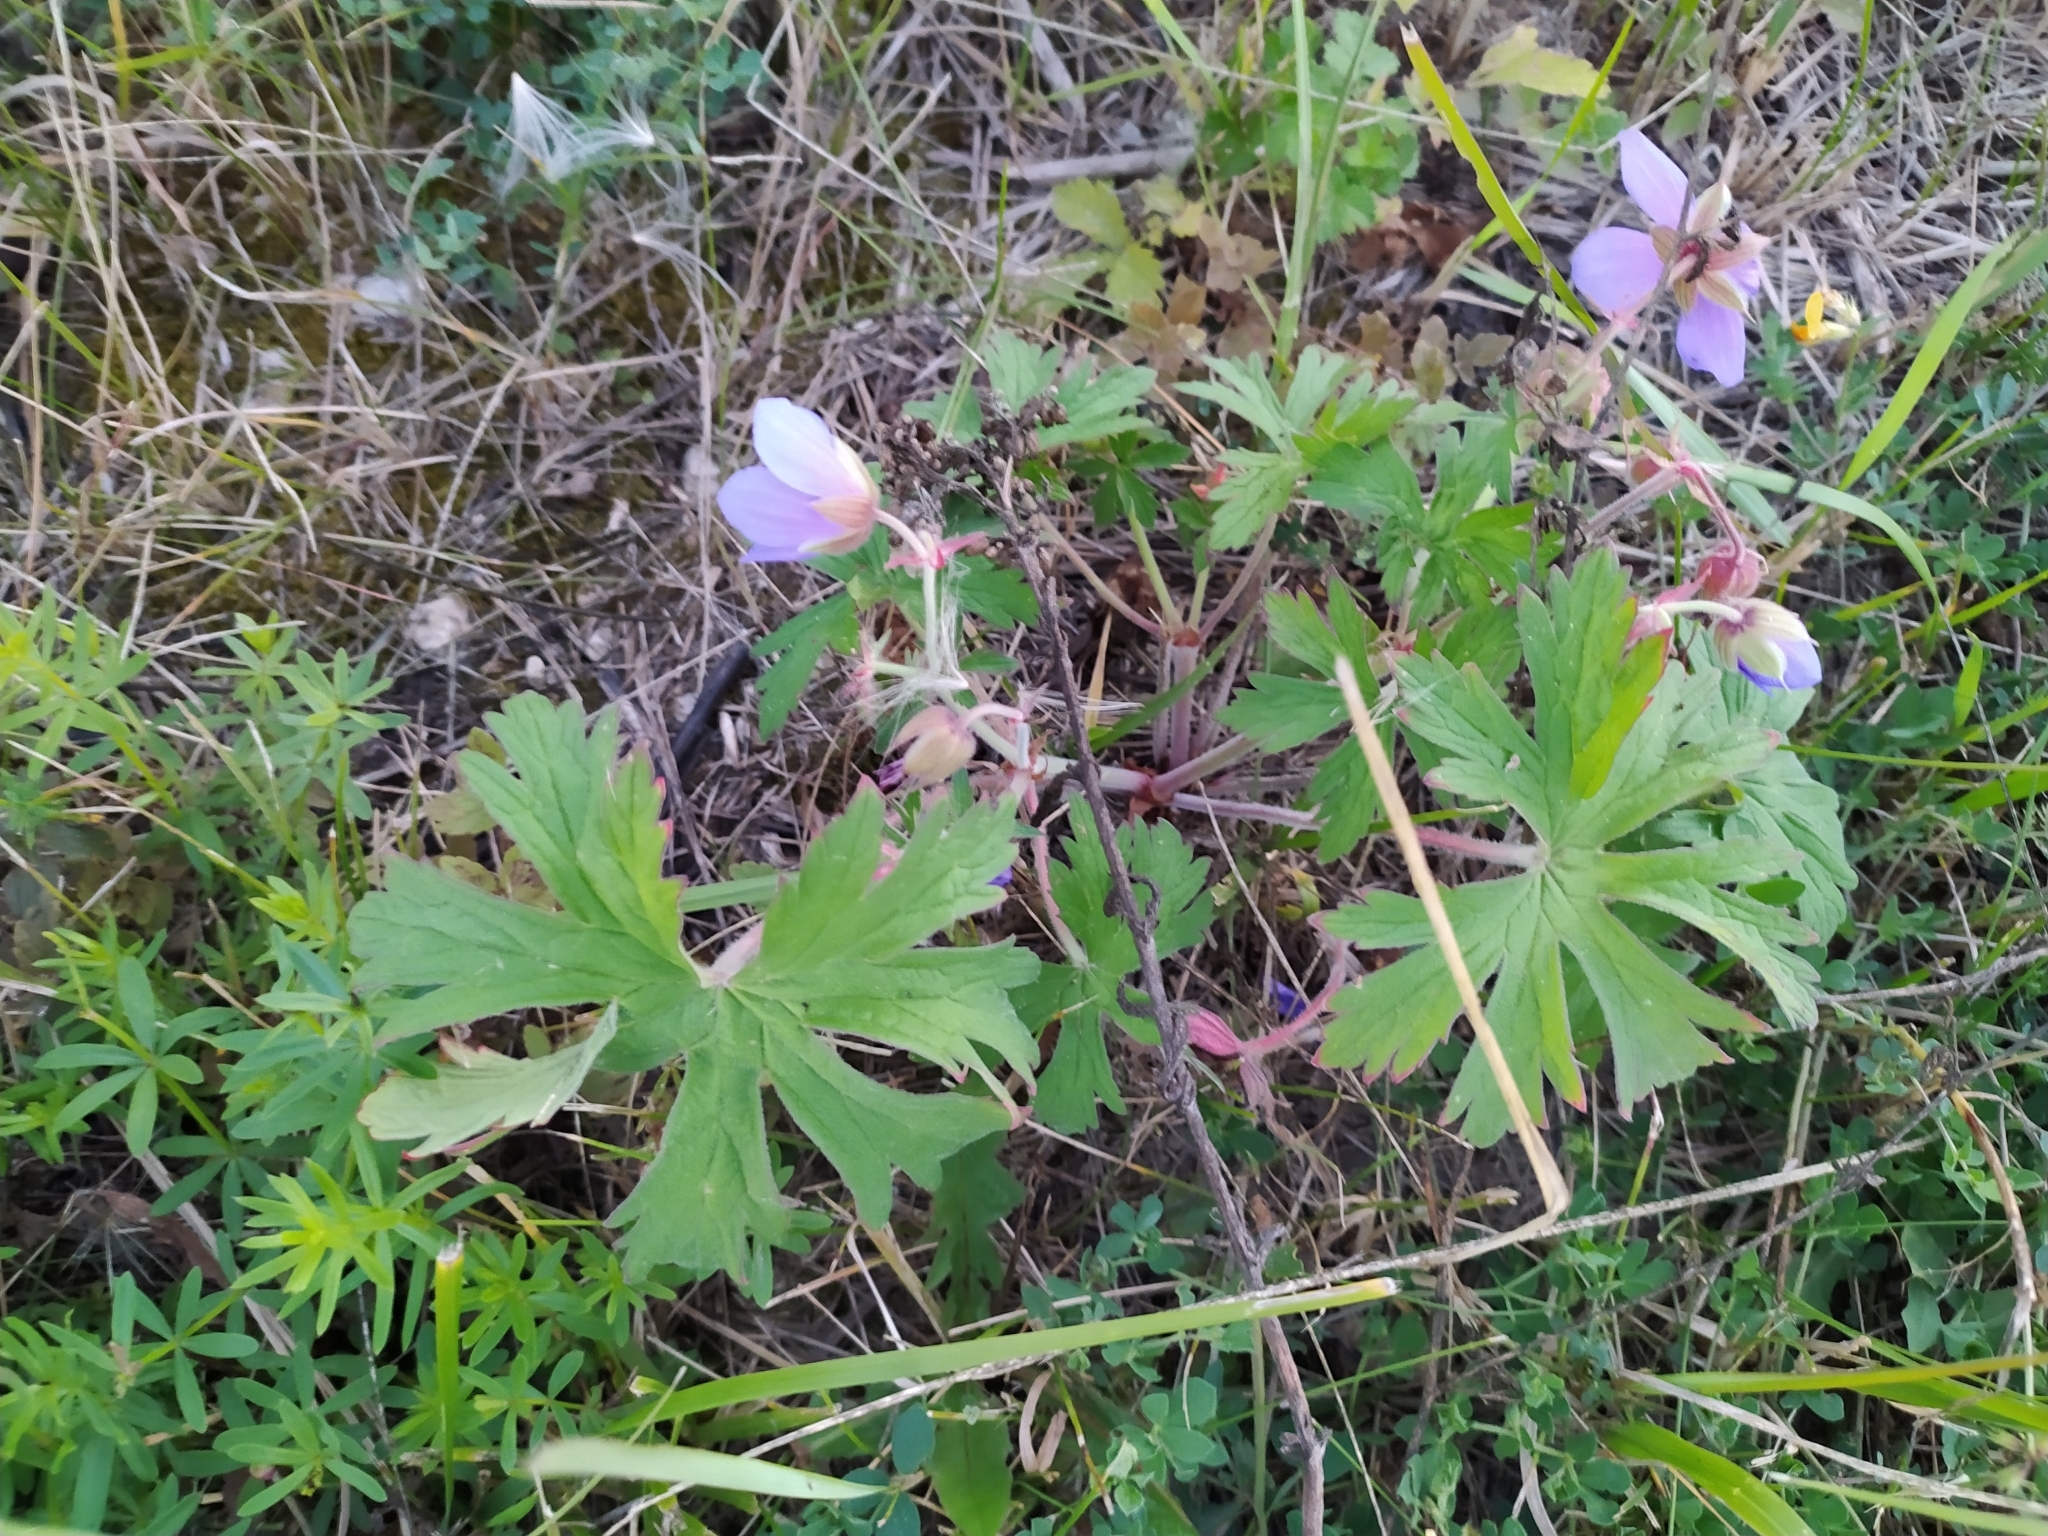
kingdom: Plantae
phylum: Tracheophyta
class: Magnoliopsida
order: Geraniales
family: Geraniaceae
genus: Geranium
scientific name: Geranium pratense
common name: Meadow crane's-bill
